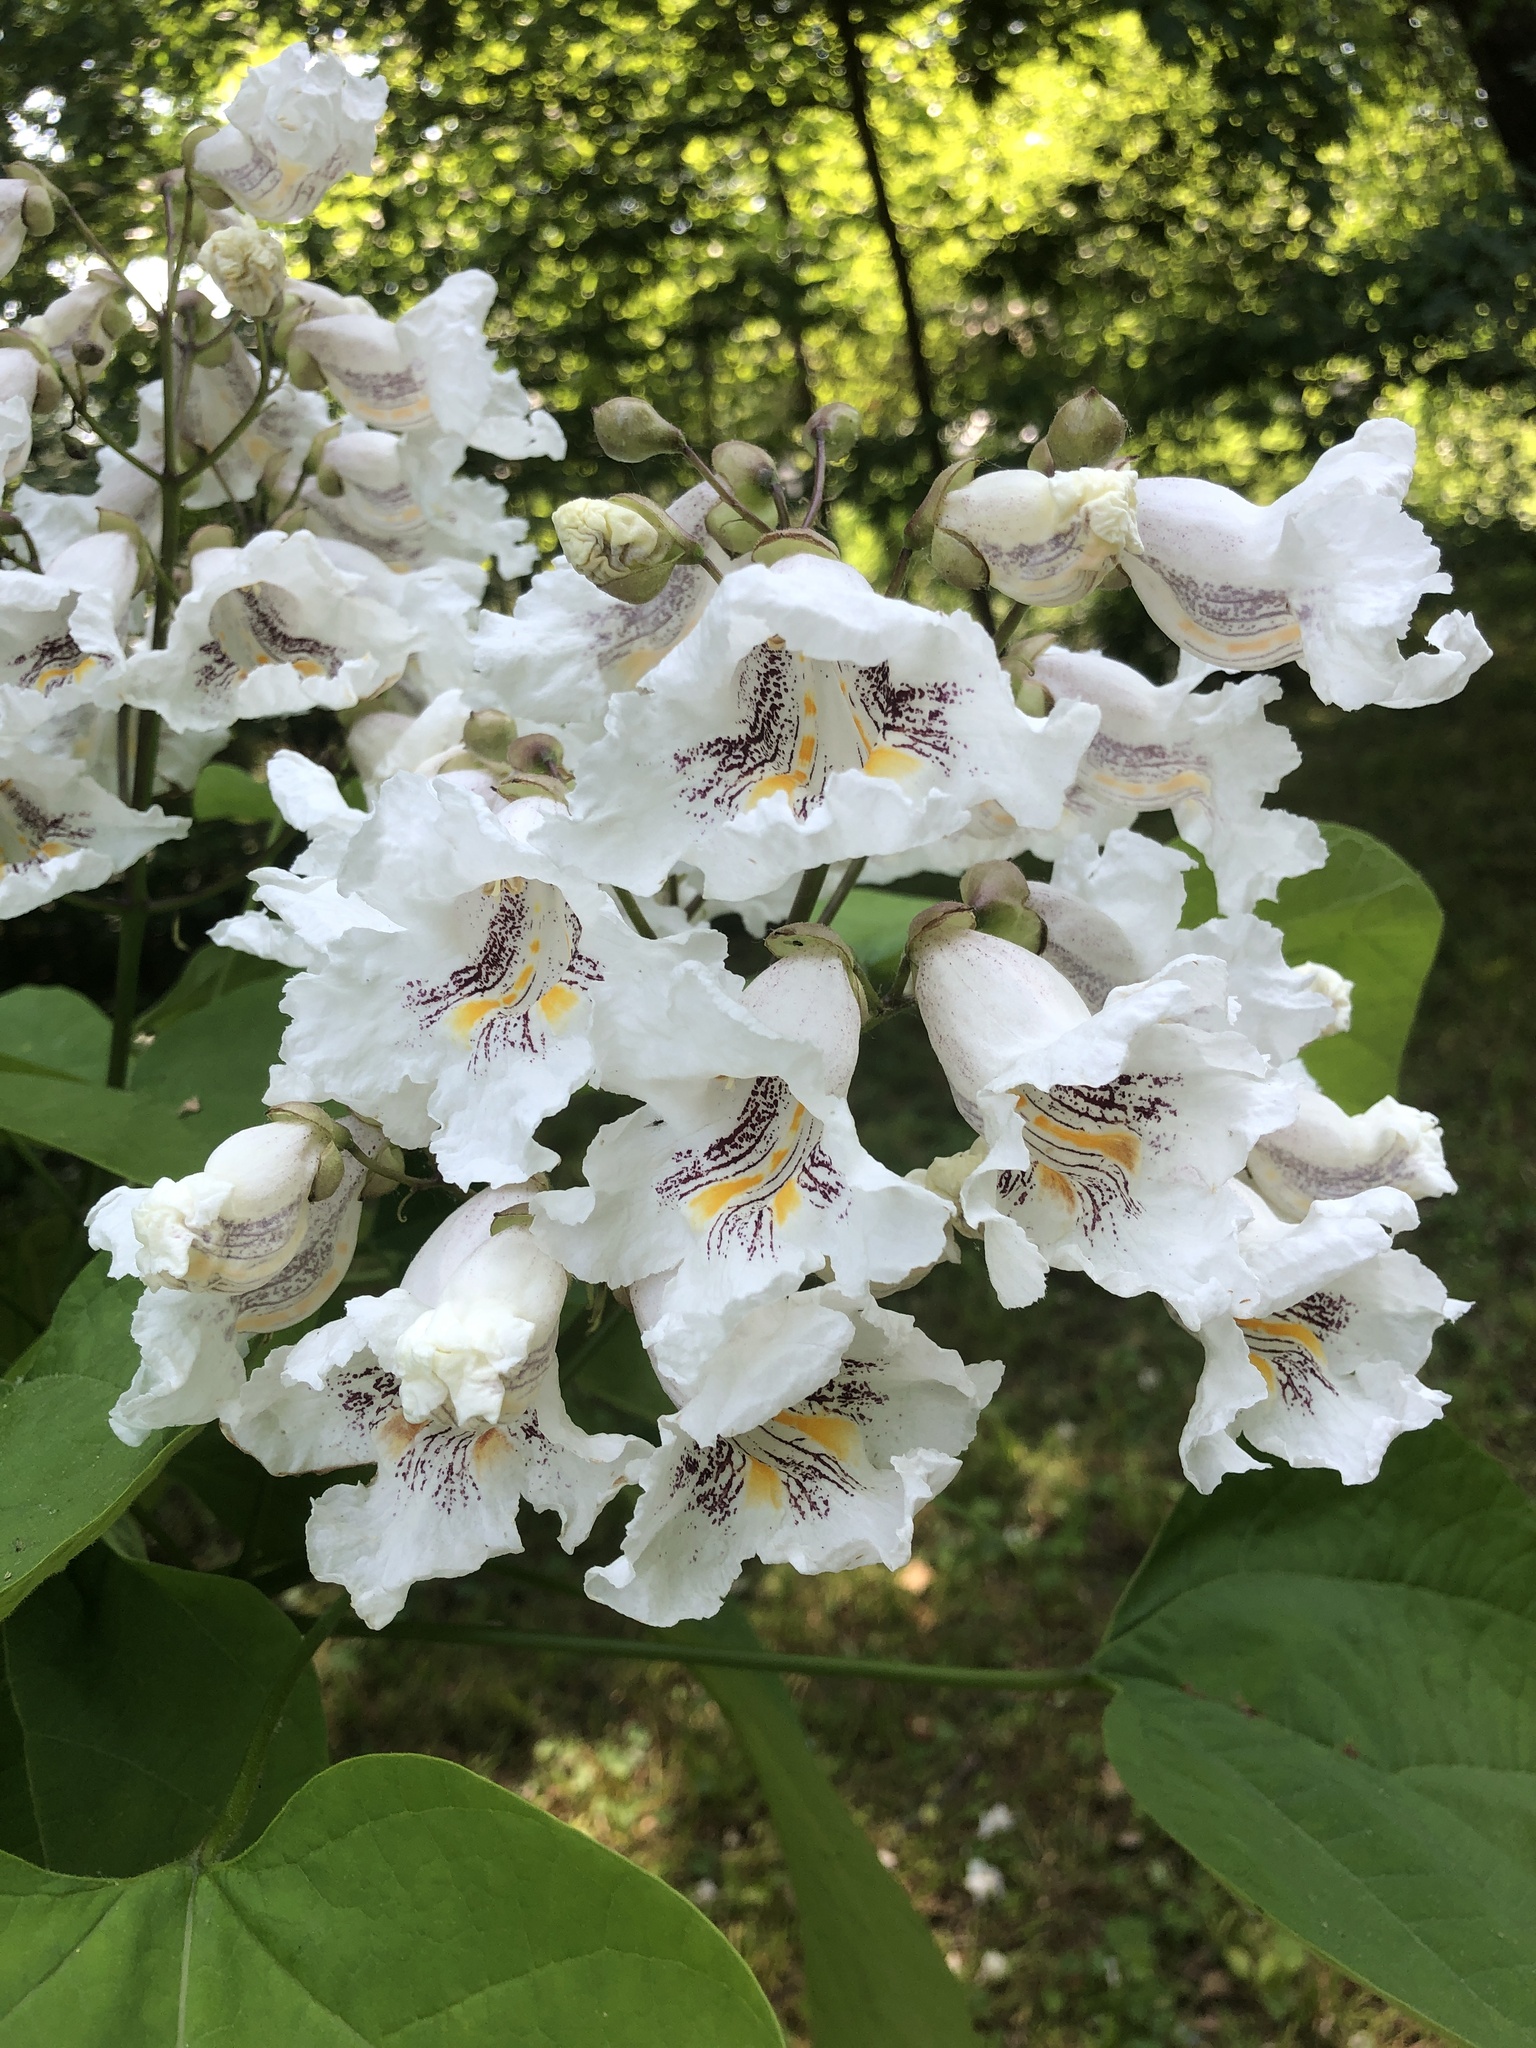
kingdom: Plantae
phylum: Tracheophyta
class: Magnoliopsida
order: Lamiales
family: Bignoniaceae
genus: Catalpa
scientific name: Catalpa speciosa
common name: Northern catalpa
